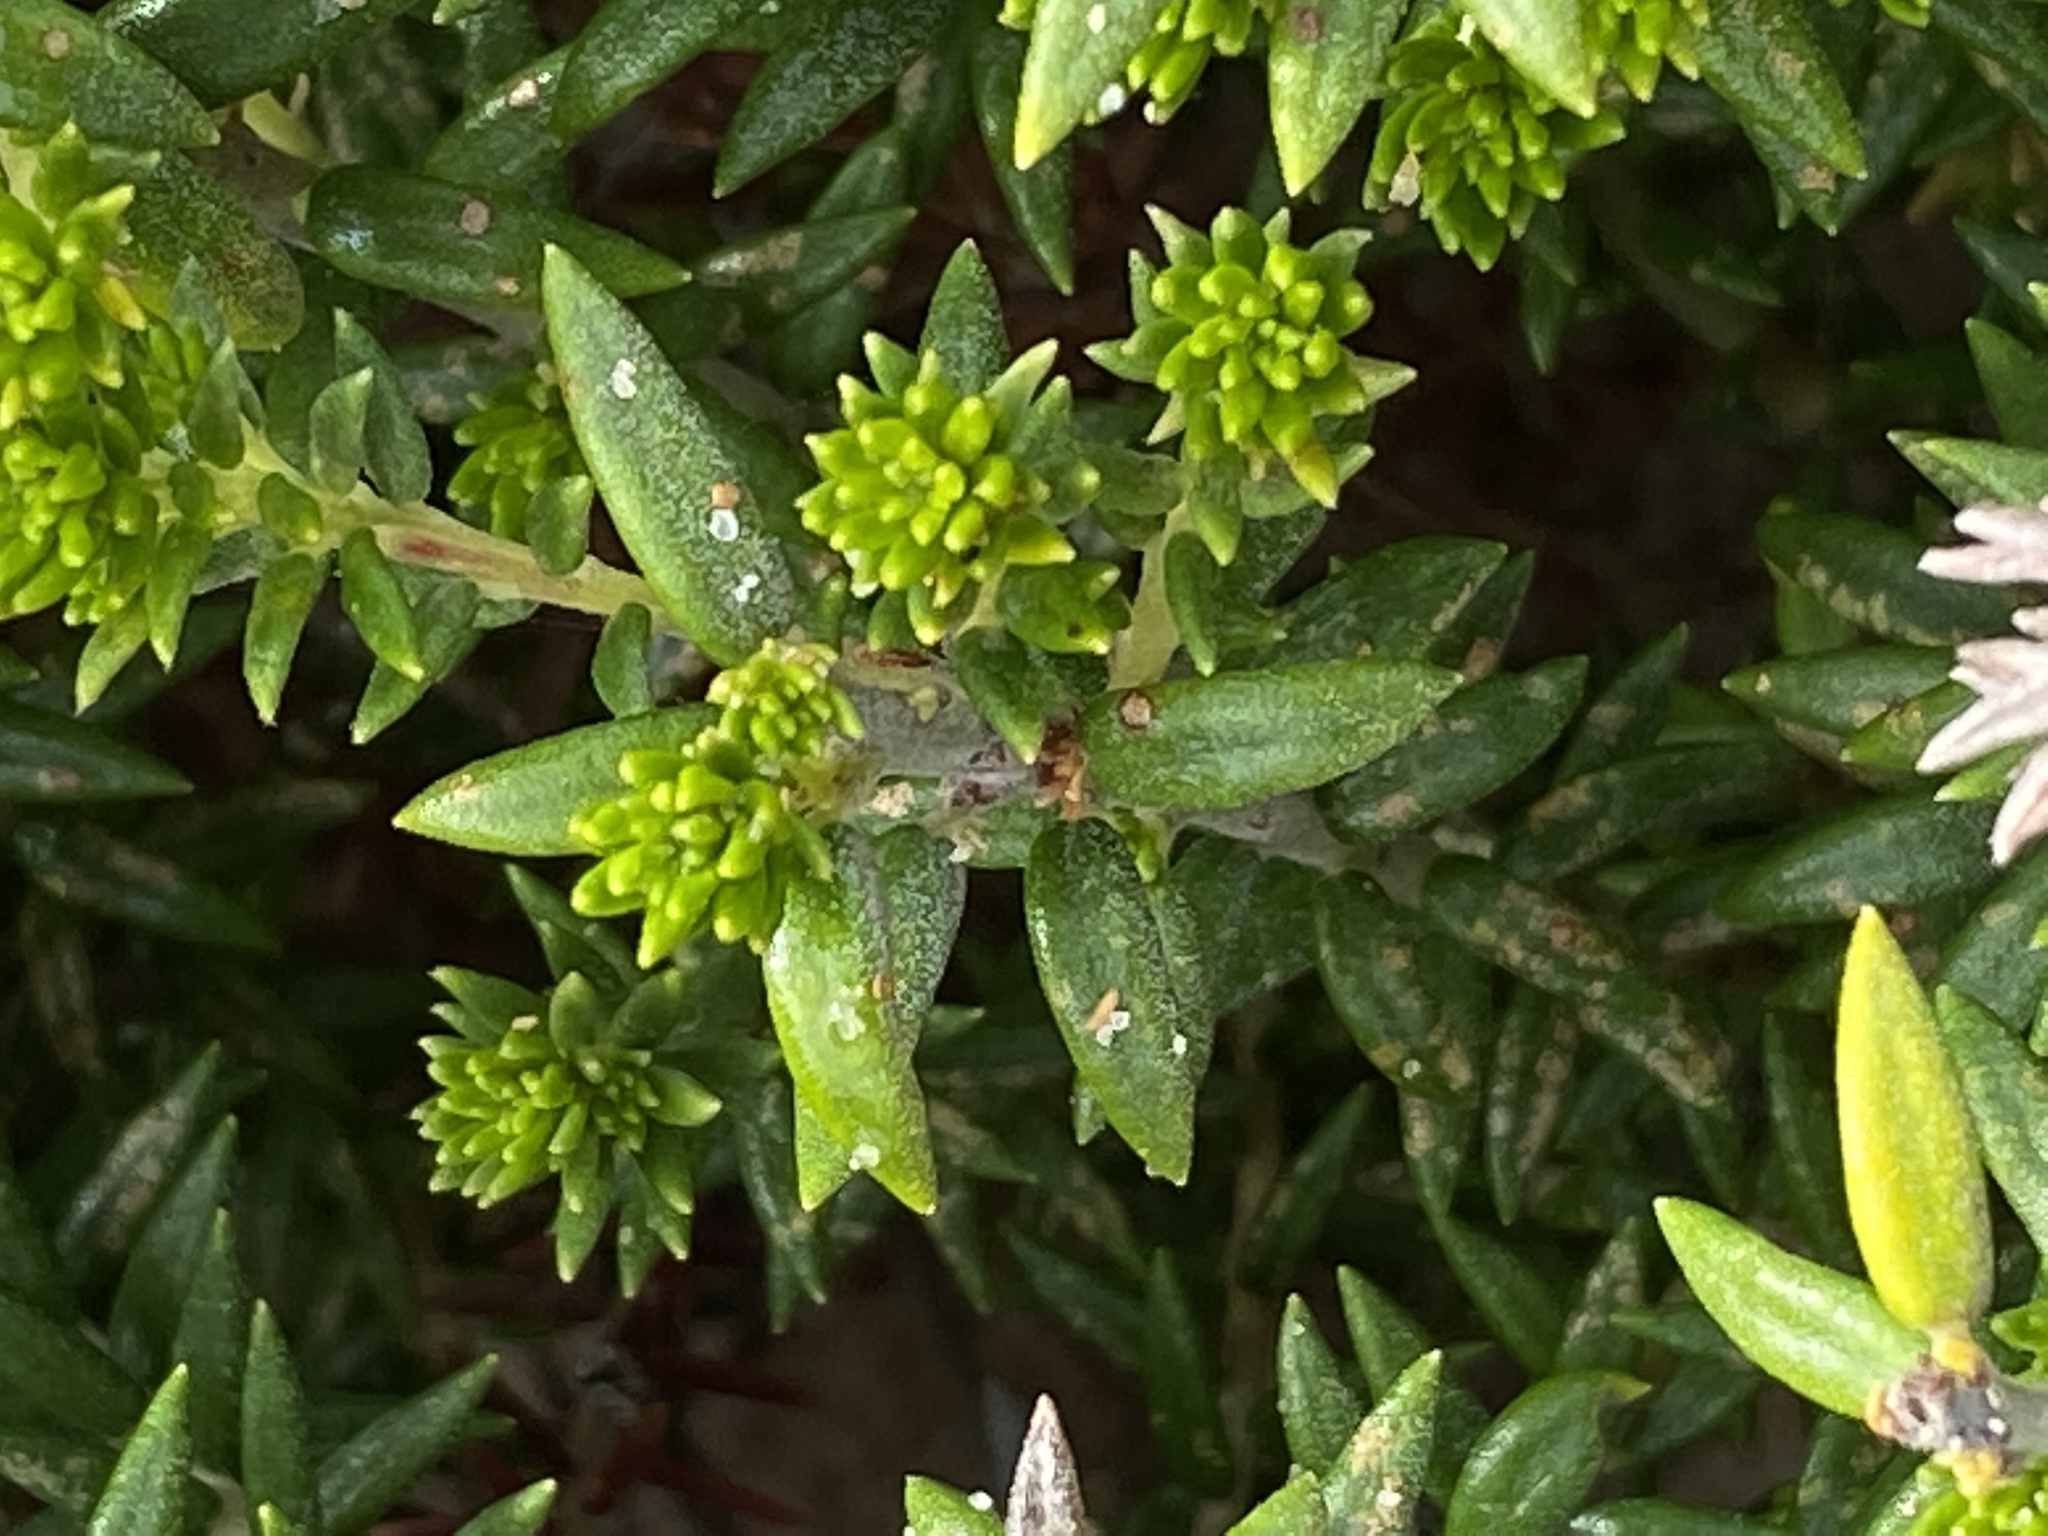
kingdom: Plantae
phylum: Tracheophyta
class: Magnoliopsida
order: Rosales
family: Rhamnaceae
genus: Phylica
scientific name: Phylica litoralis
